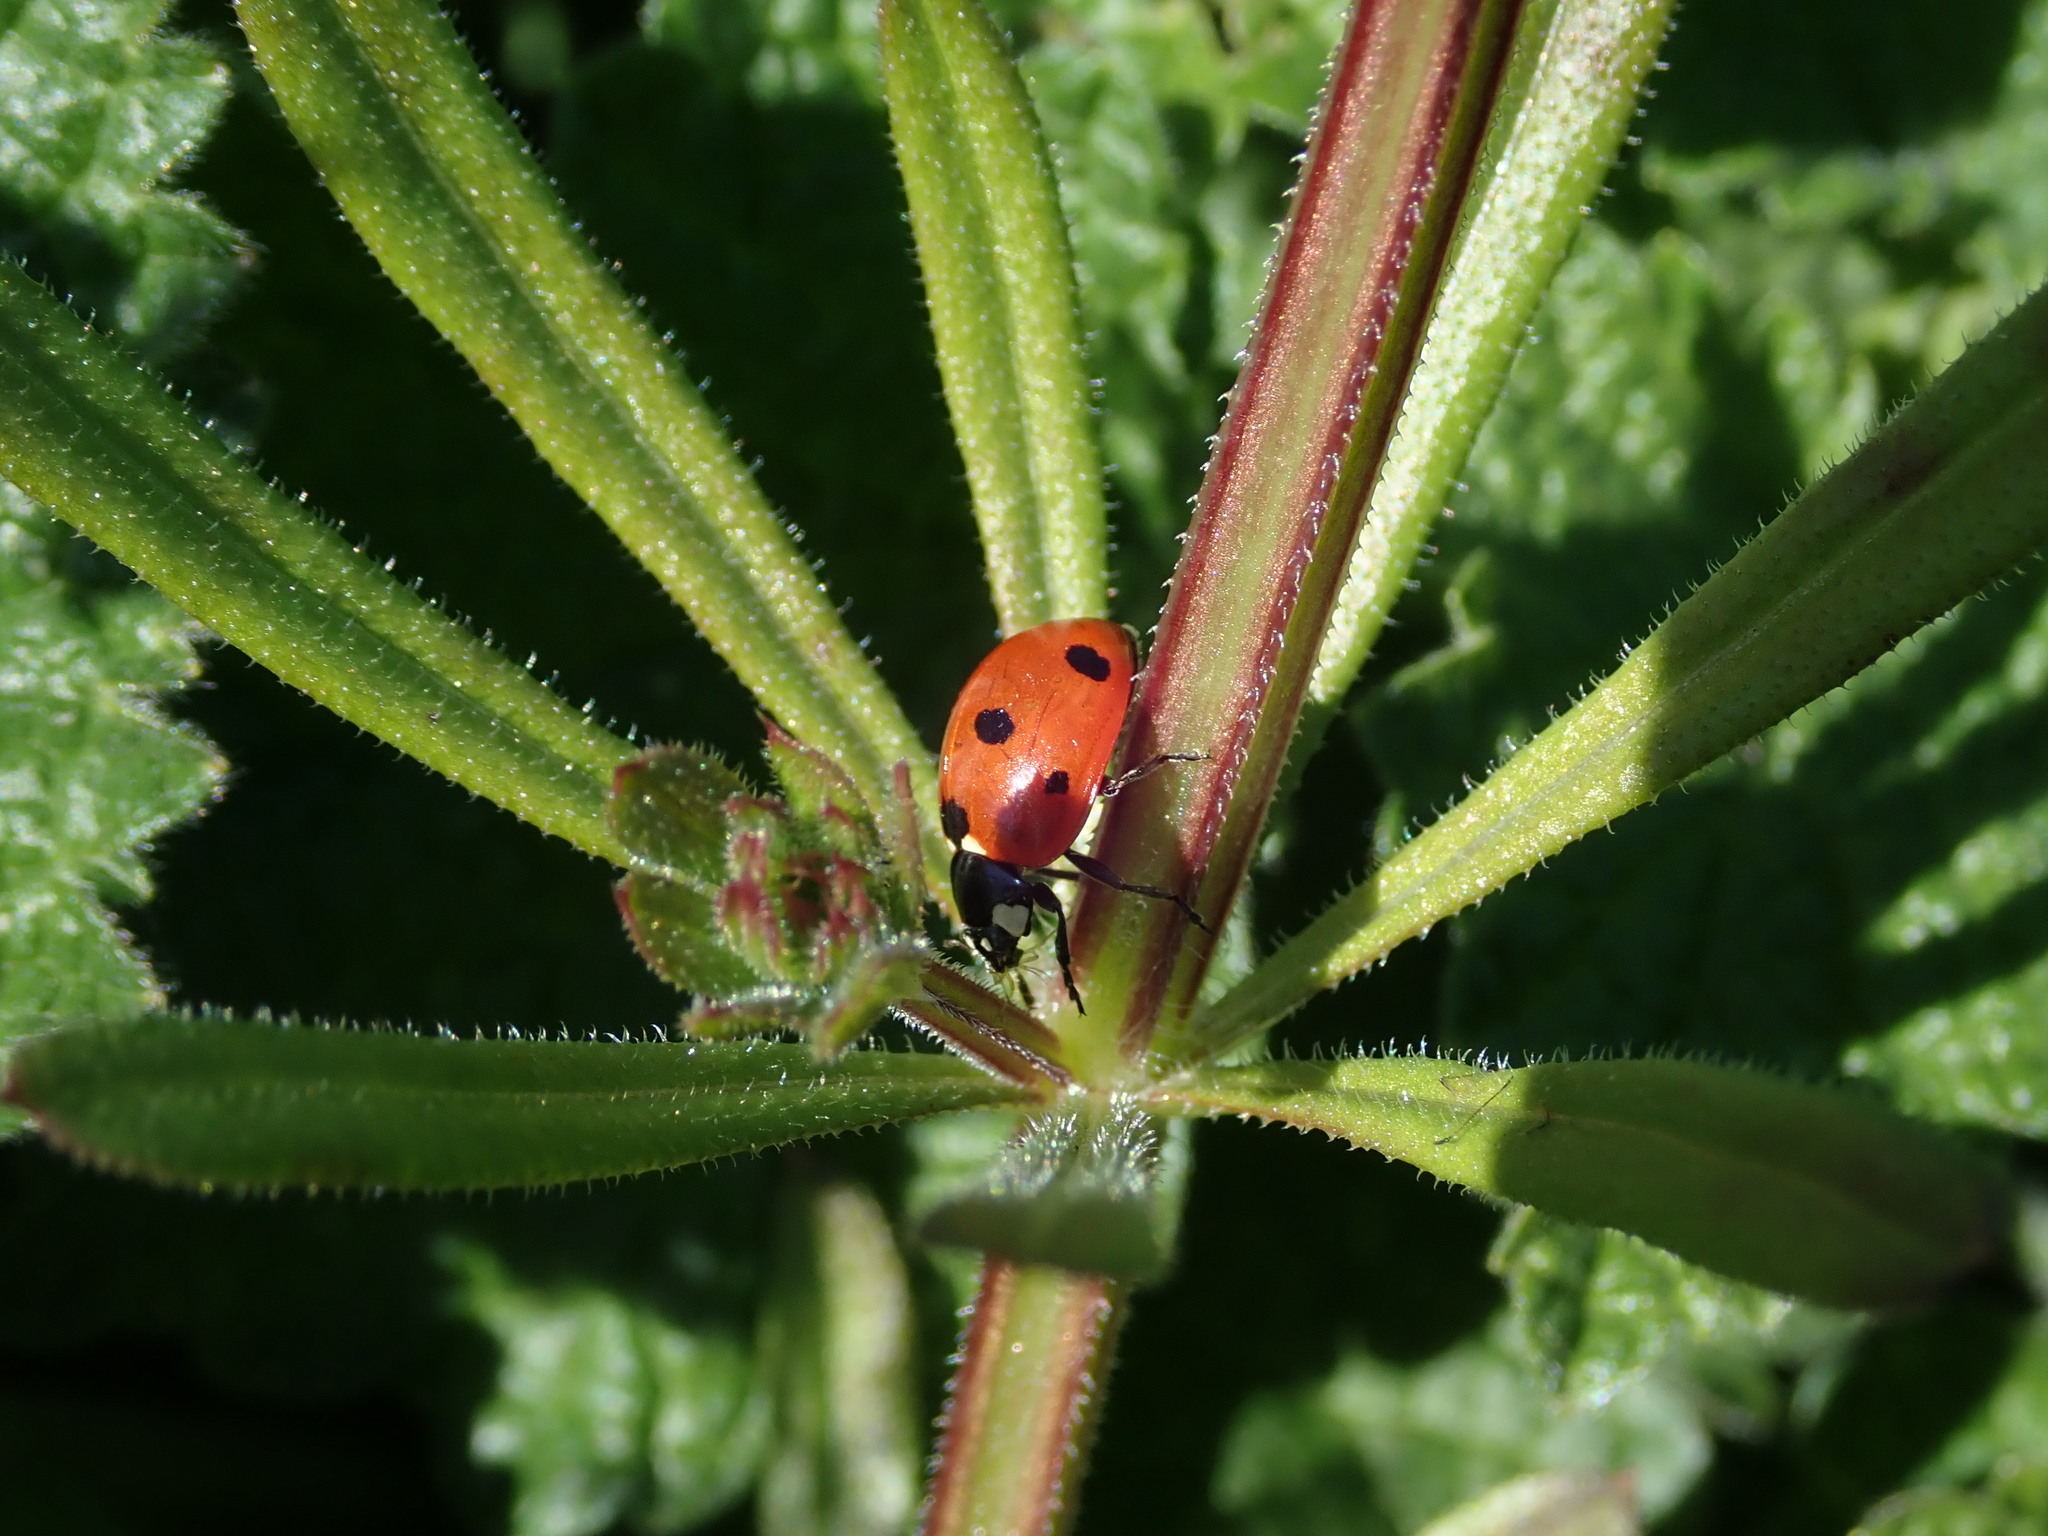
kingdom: Animalia
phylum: Arthropoda
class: Insecta
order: Coleoptera
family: Coccinellidae
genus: Coccinella
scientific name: Coccinella septempunctata
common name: Sevenspotted lady beetle
